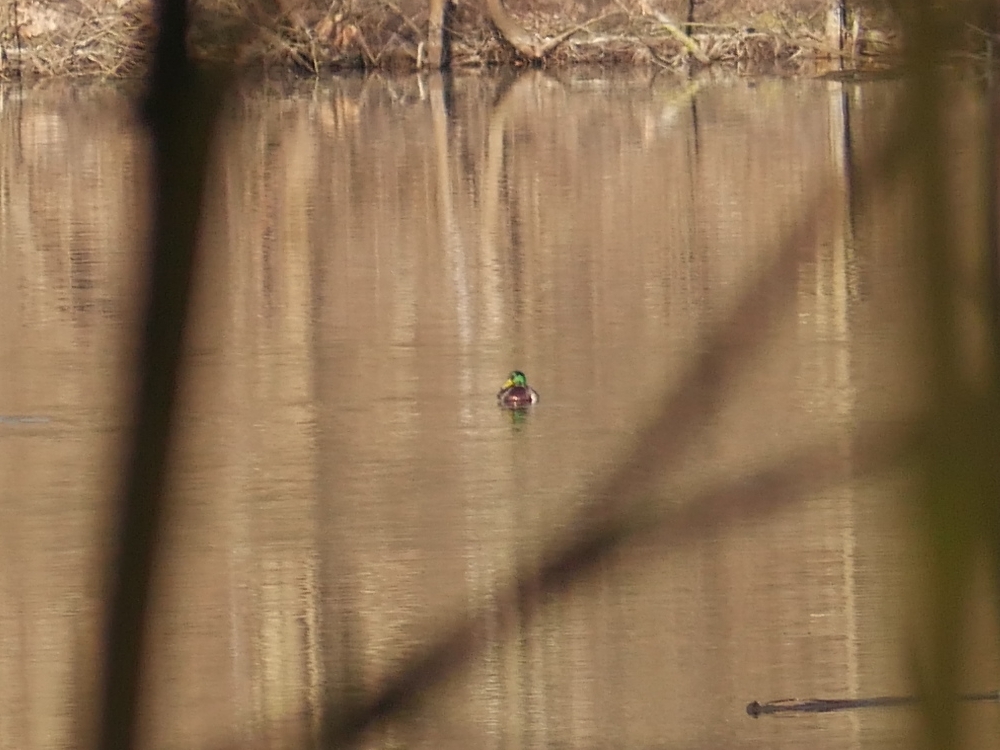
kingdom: Animalia
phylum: Chordata
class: Aves
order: Anseriformes
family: Anatidae
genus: Anas
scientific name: Anas platyrhynchos
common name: Mallard
